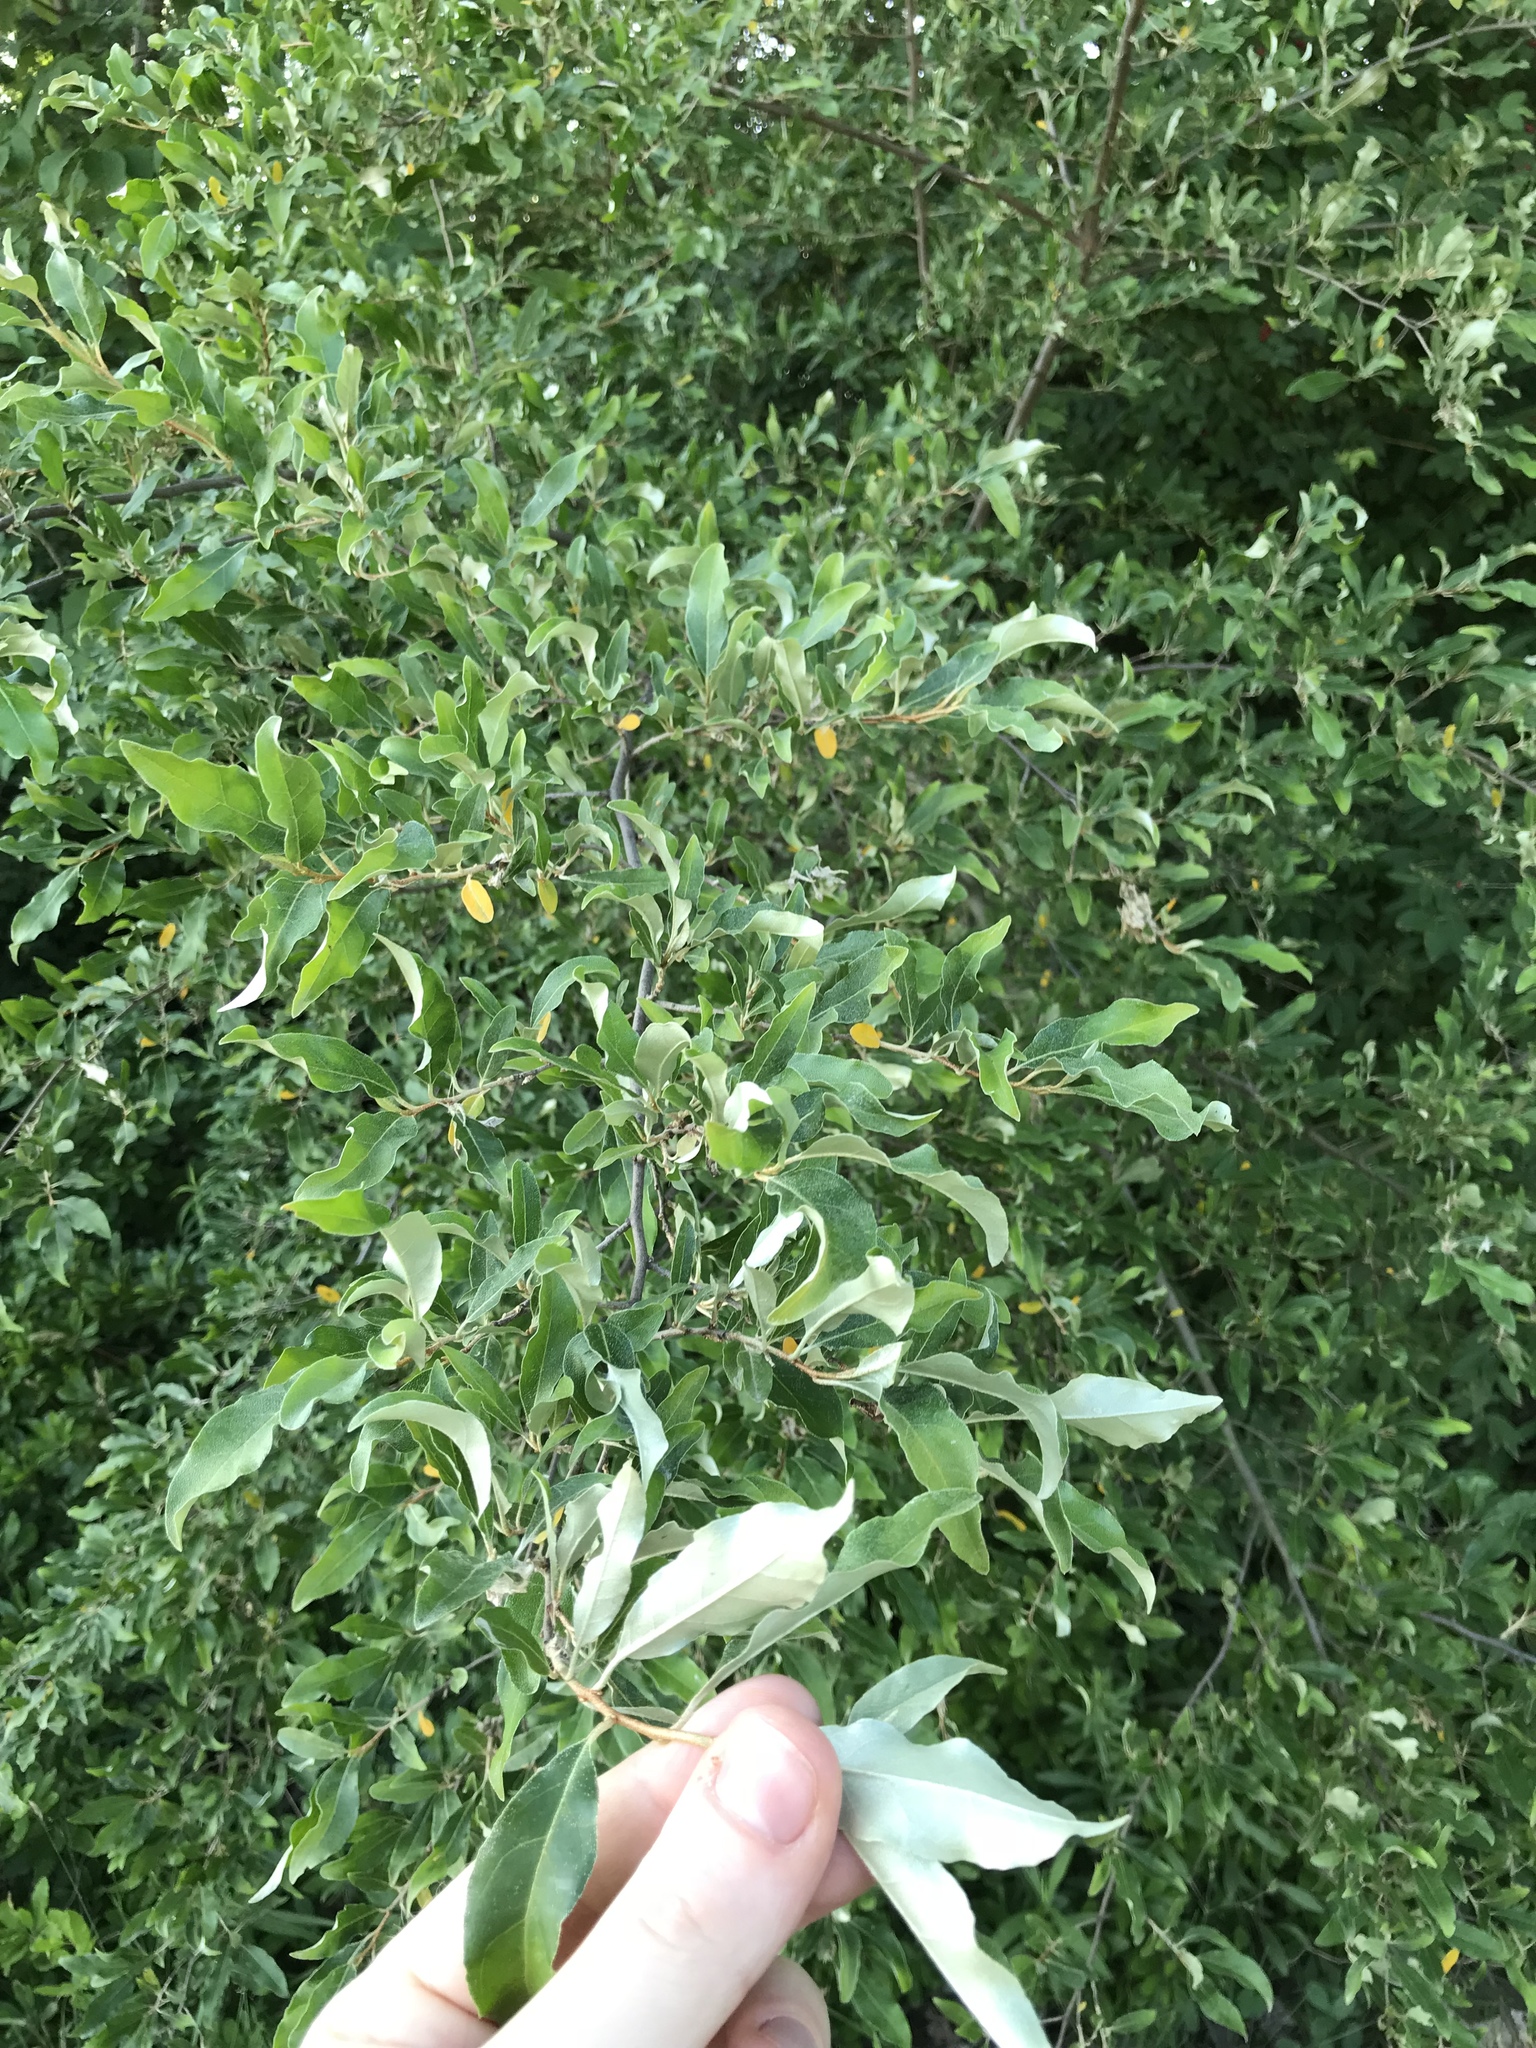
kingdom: Plantae
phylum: Tracheophyta
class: Magnoliopsida
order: Rosales
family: Elaeagnaceae
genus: Elaeagnus
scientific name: Elaeagnus umbellata
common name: Autumn olive
